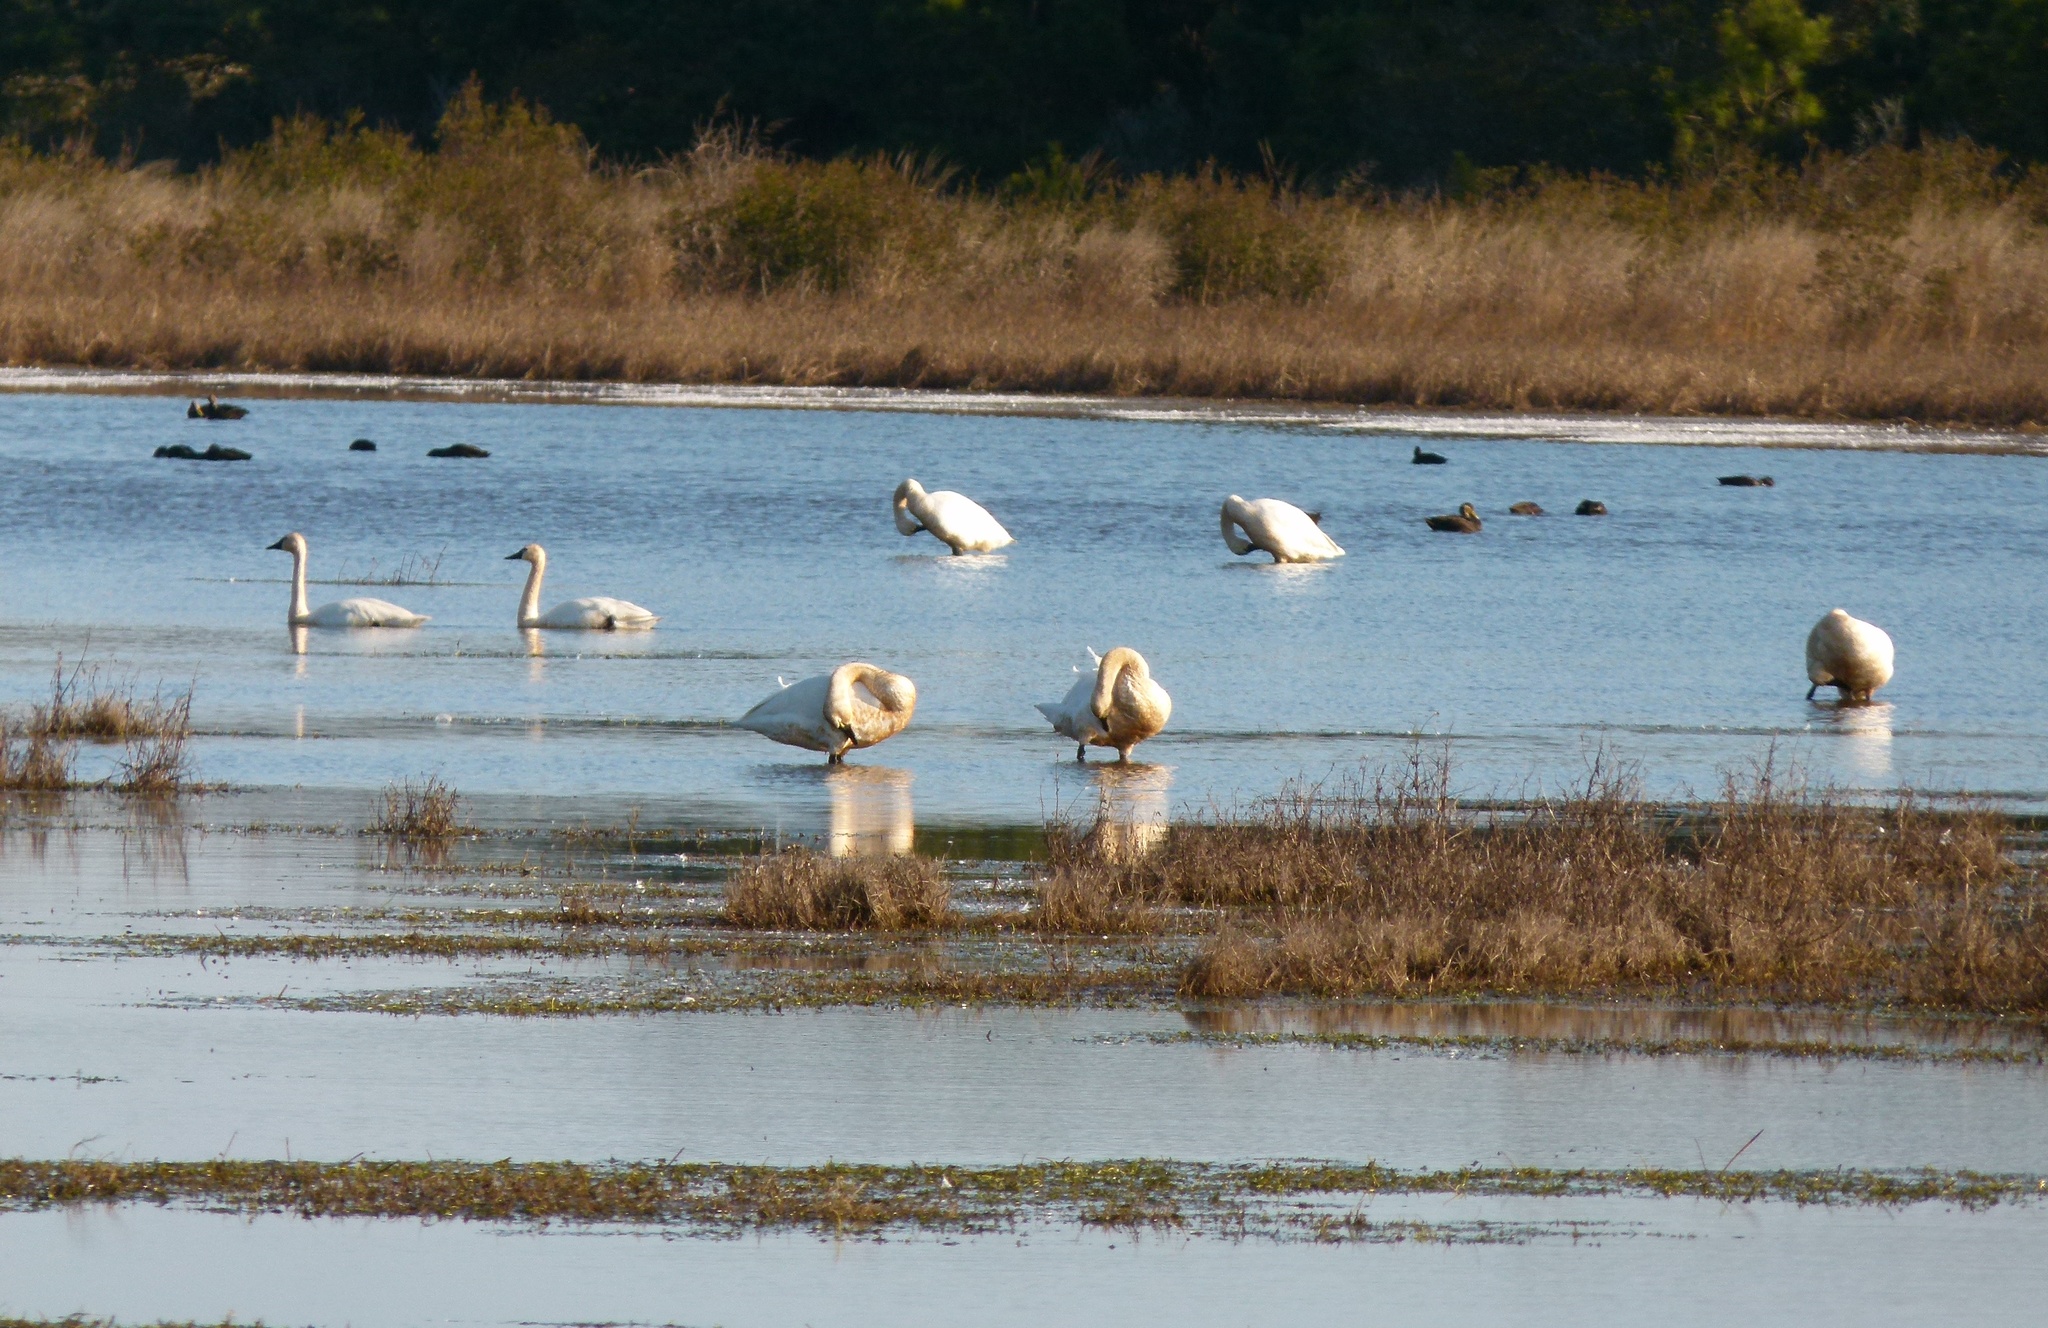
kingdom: Animalia
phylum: Chordata
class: Aves
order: Anseriformes
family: Anatidae
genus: Cygnus
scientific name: Cygnus columbianus
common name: Tundra swan
